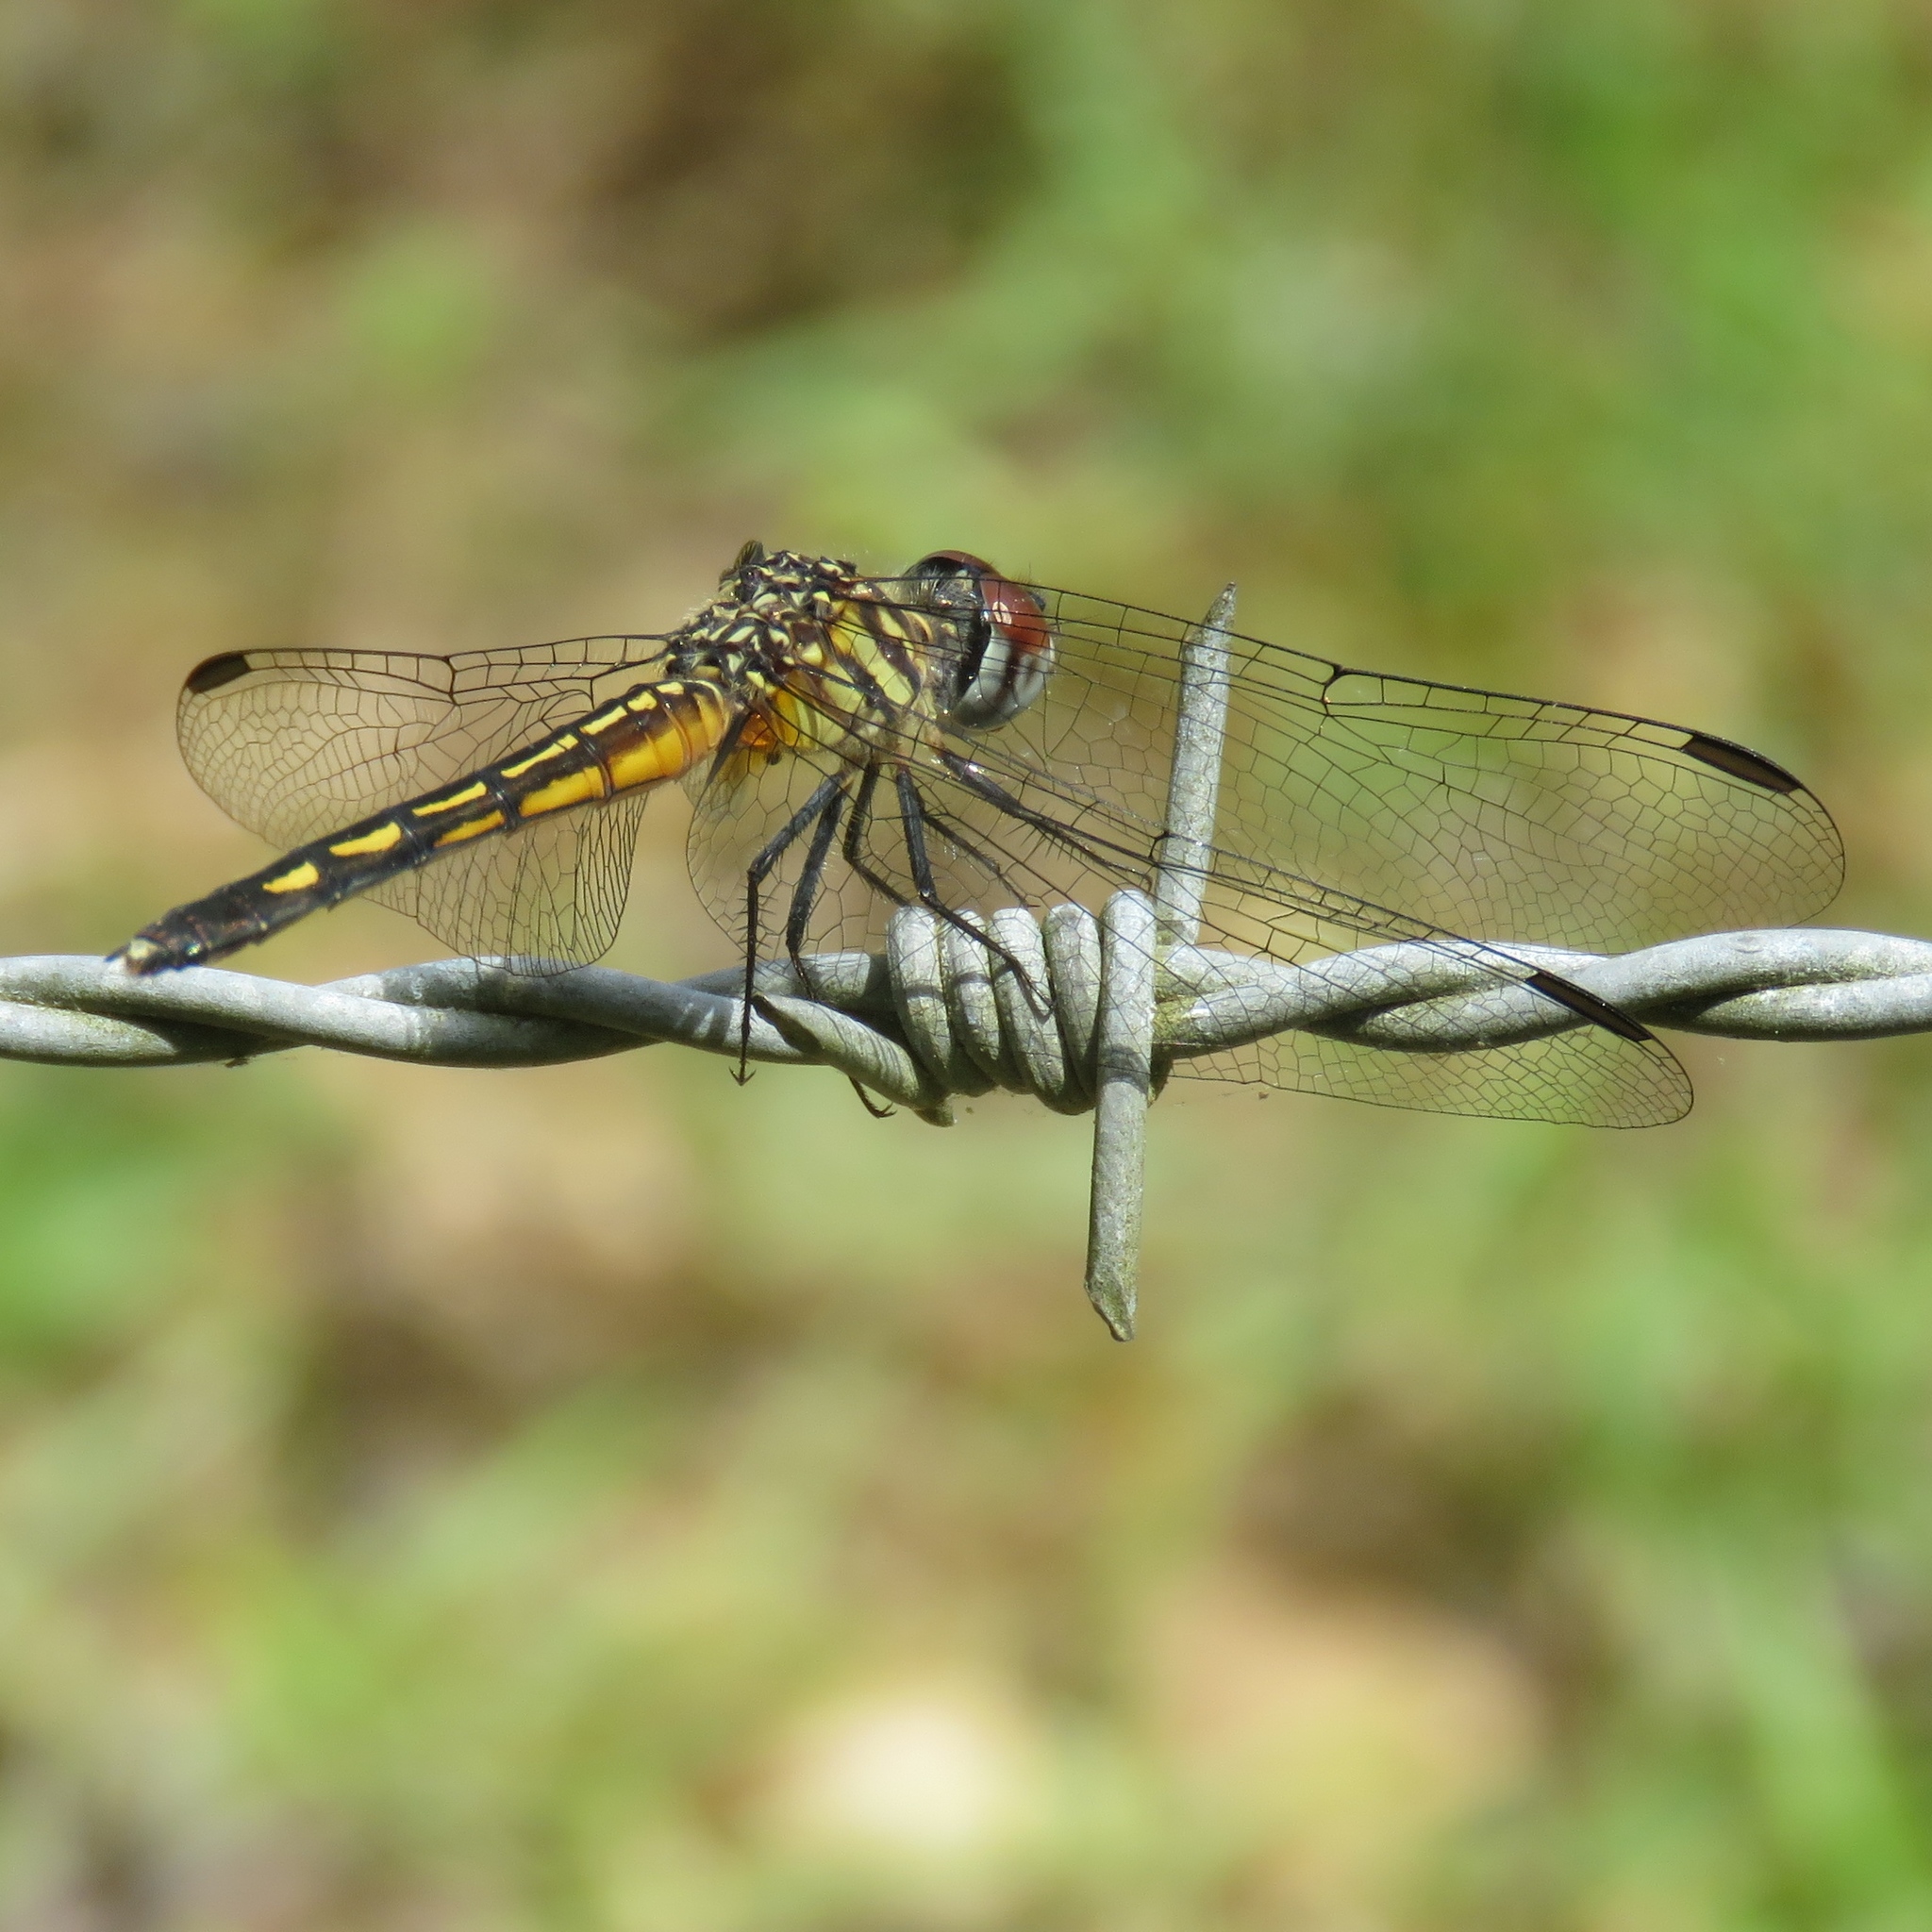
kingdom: Animalia
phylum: Arthropoda
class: Insecta
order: Odonata
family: Libellulidae
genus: Pachydiplax
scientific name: Pachydiplax longipennis
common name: Blue dasher
